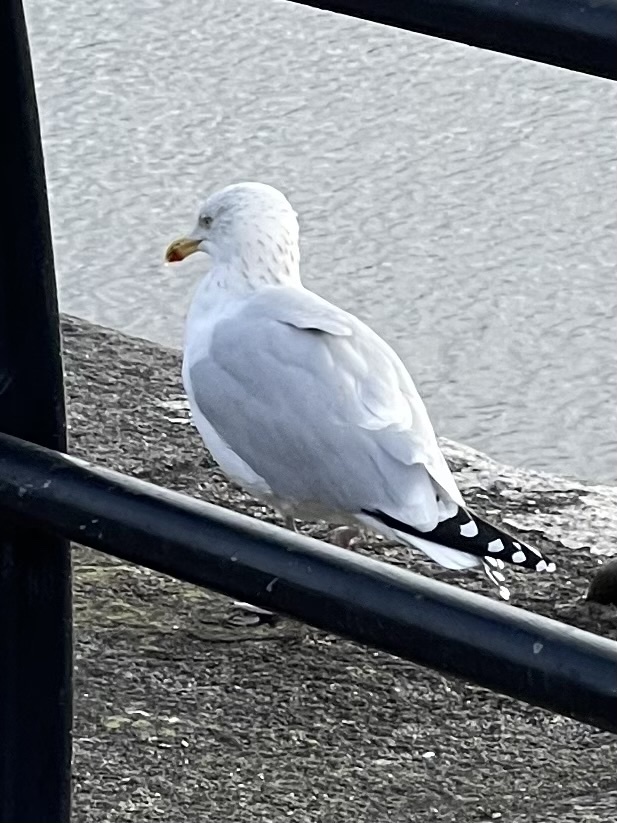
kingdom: Animalia
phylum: Chordata
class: Aves
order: Charadriiformes
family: Laridae
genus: Larus
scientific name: Larus argentatus
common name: Herring gull
